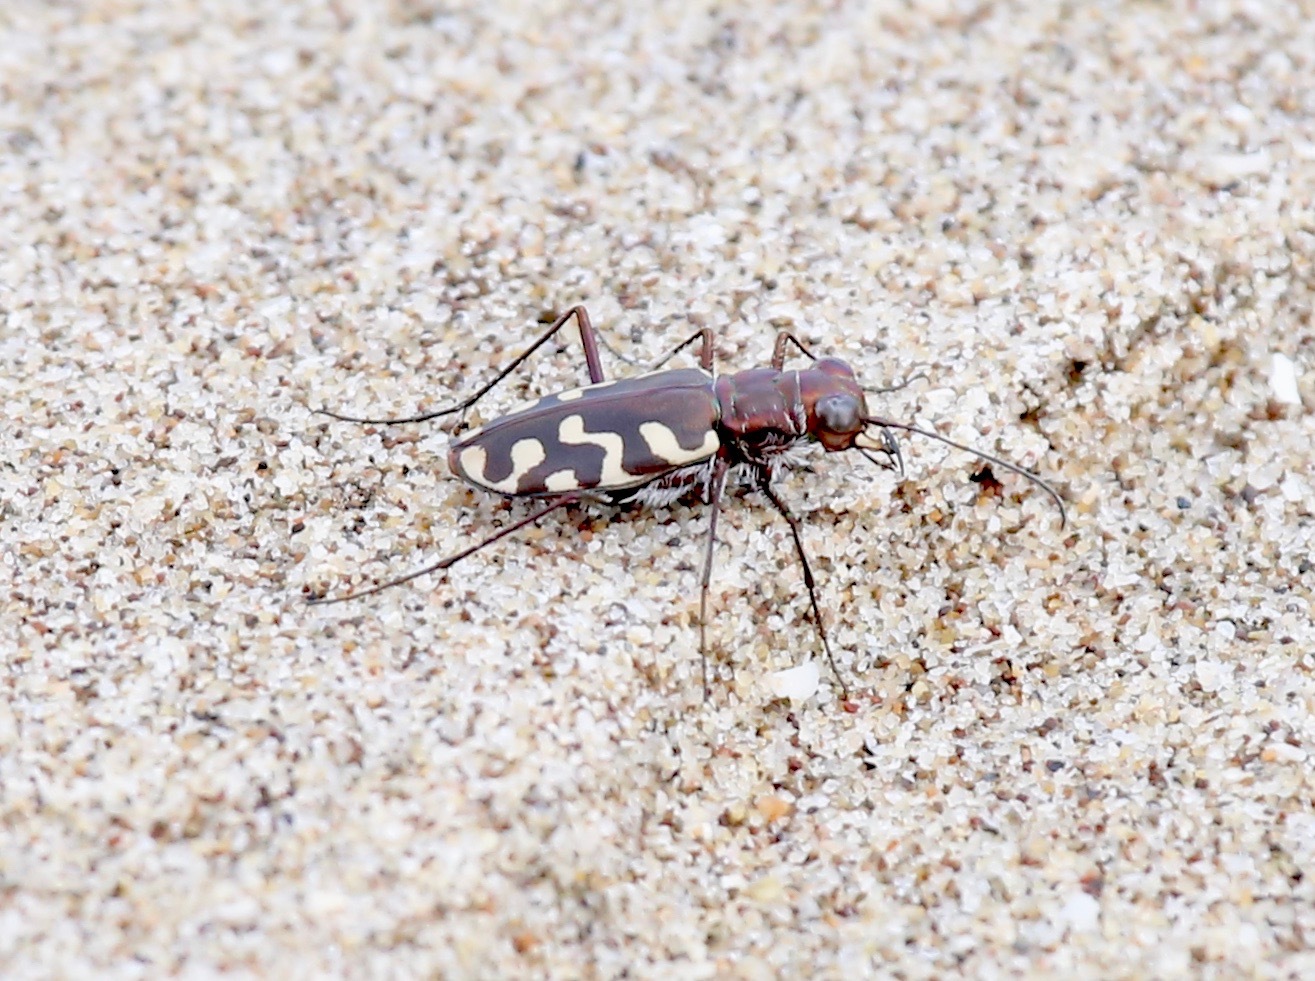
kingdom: Animalia
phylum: Arthropoda
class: Insecta
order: Coleoptera
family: Carabidae
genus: Cicindela
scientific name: Cicindela carthagena
